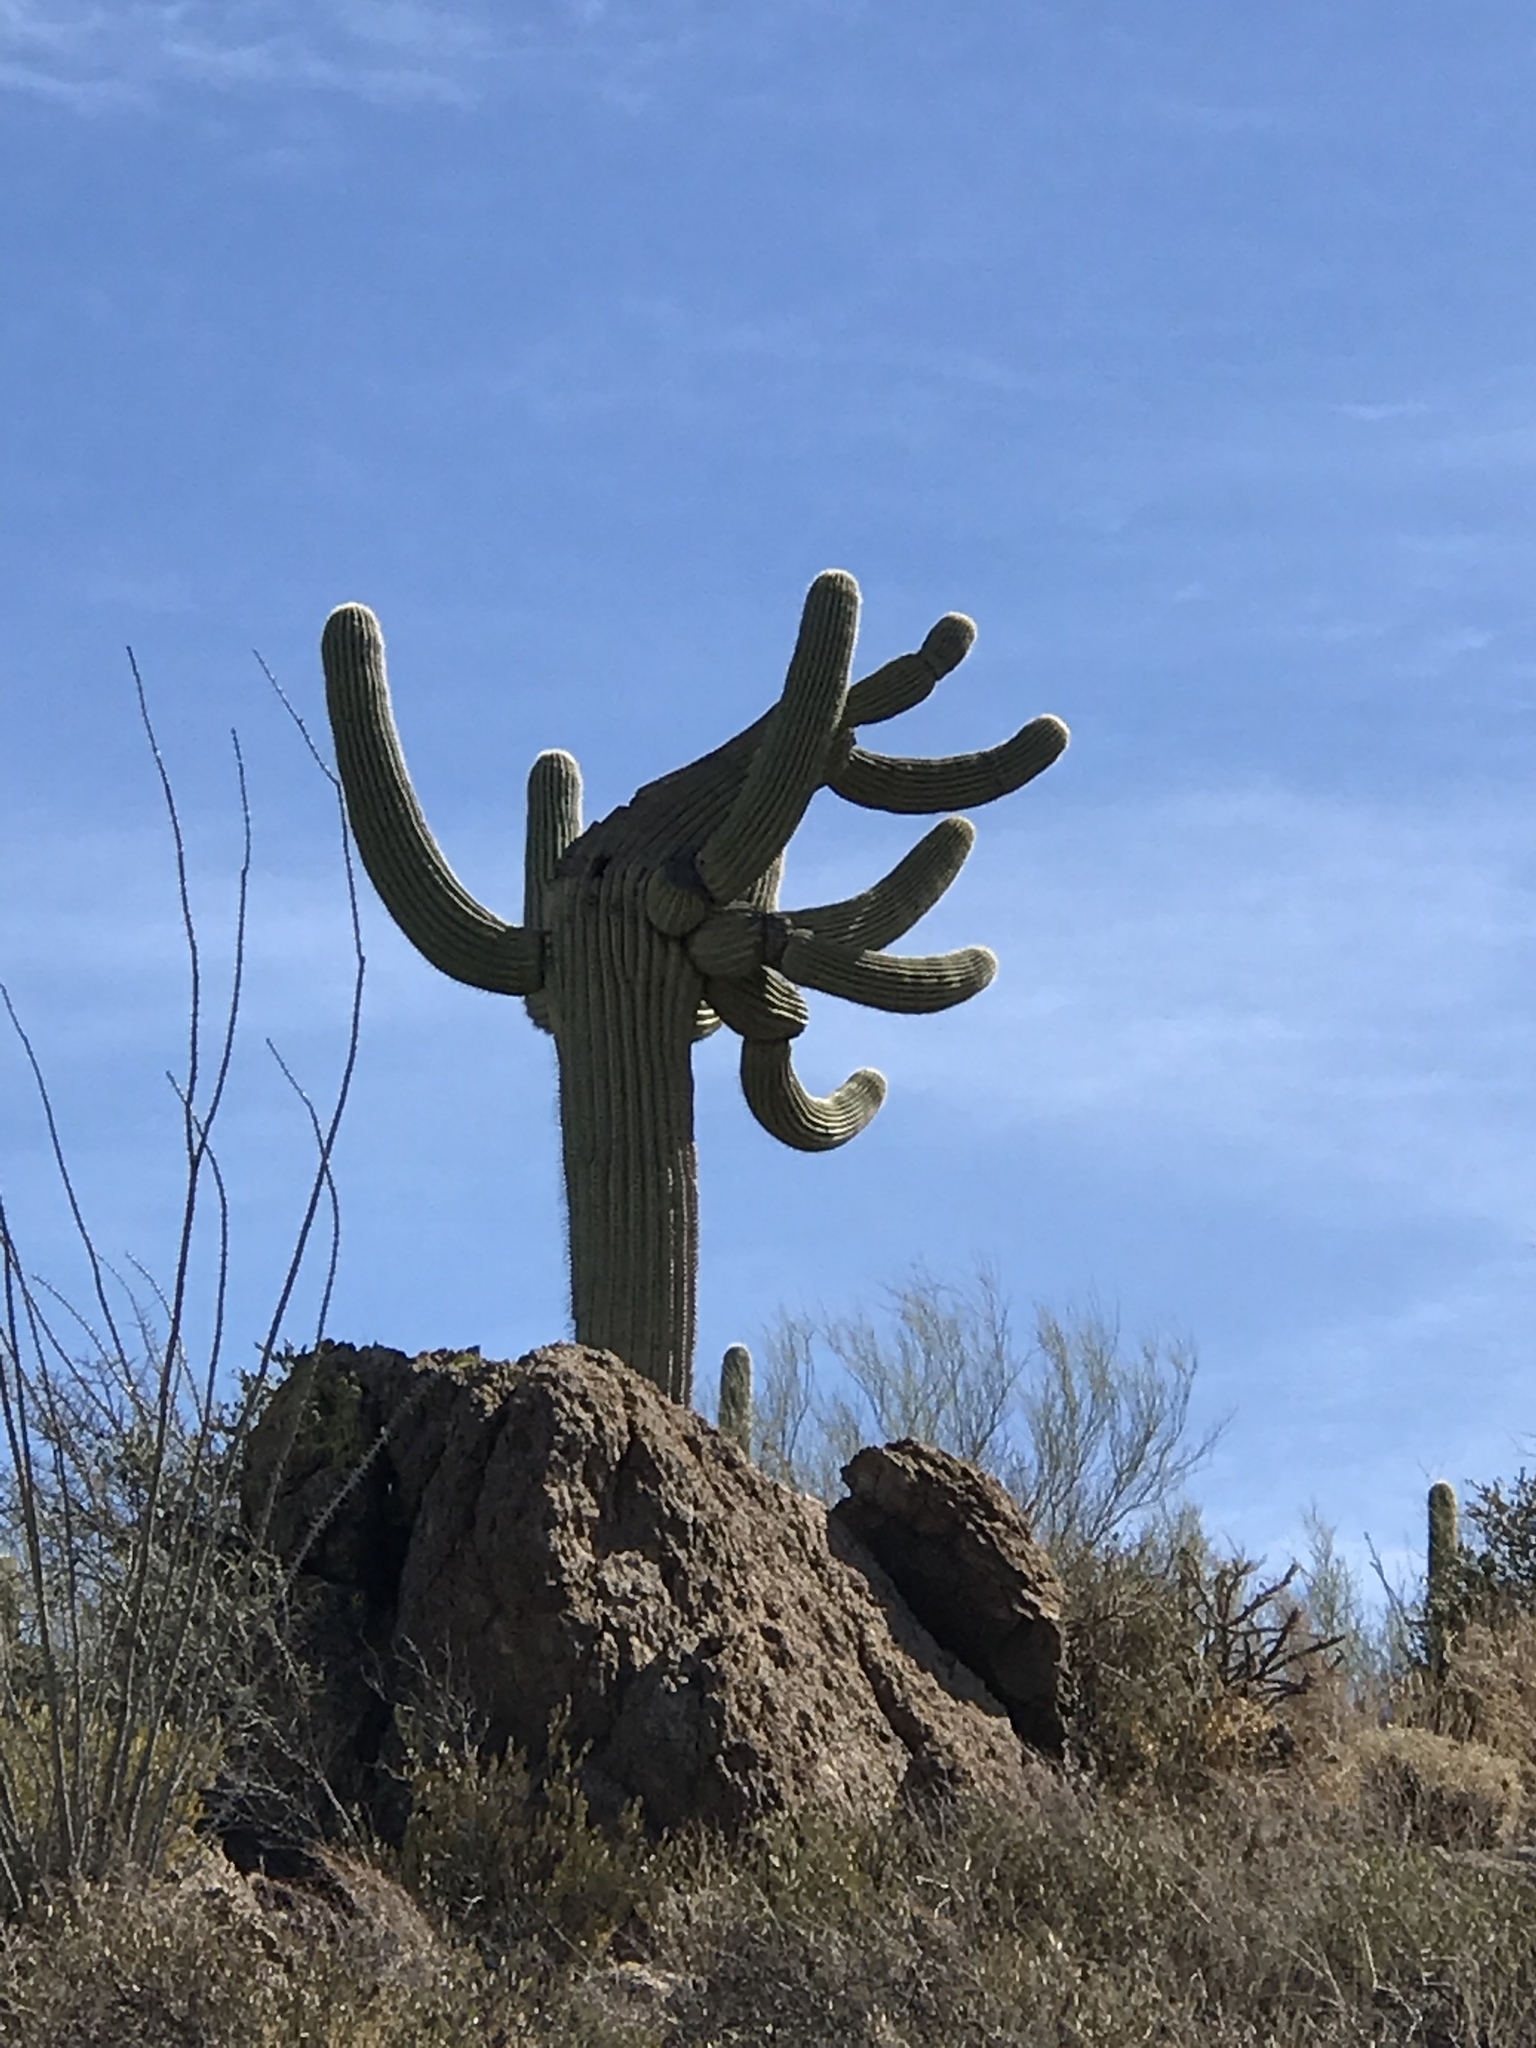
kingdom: Plantae
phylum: Tracheophyta
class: Magnoliopsida
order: Caryophyllales
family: Cactaceae
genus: Carnegiea
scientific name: Carnegiea gigantea
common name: Saguaro
